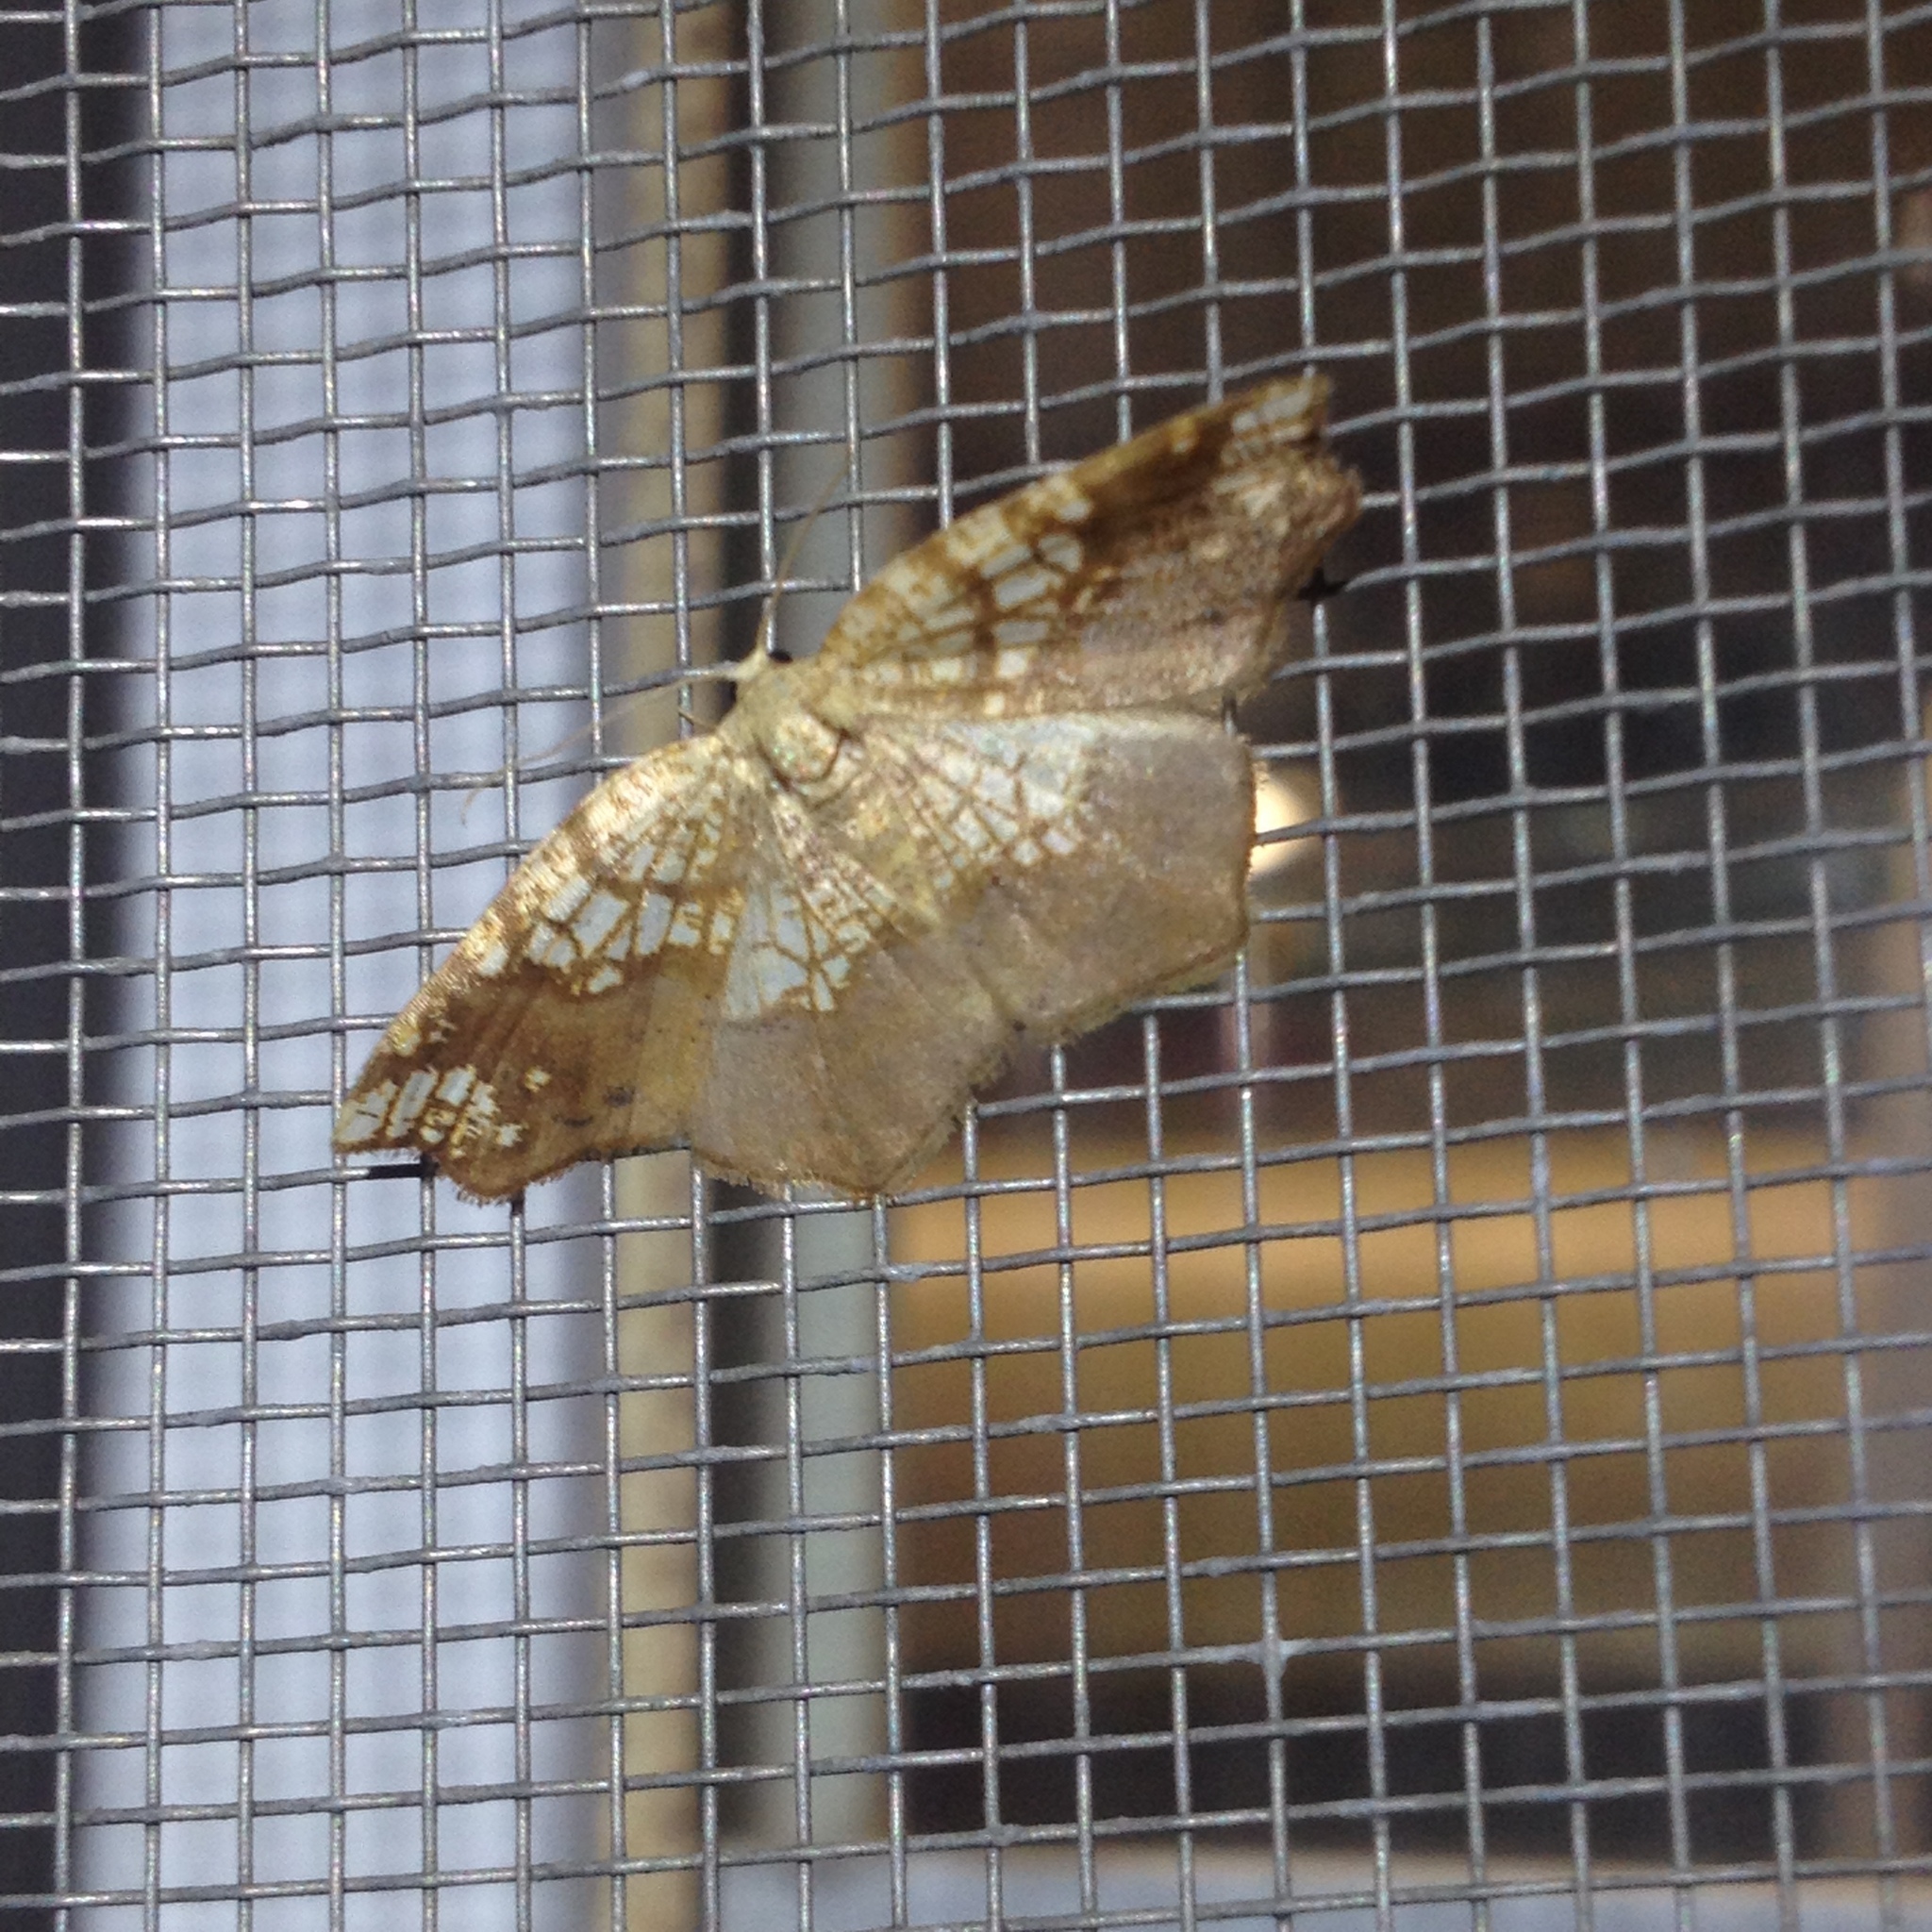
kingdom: Animalia
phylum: Arthropoda
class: Insecta
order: Lepidoptera
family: Geometridae
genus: Nematocampa
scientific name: Nematocampa resistaria
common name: Horned spanworm moth
